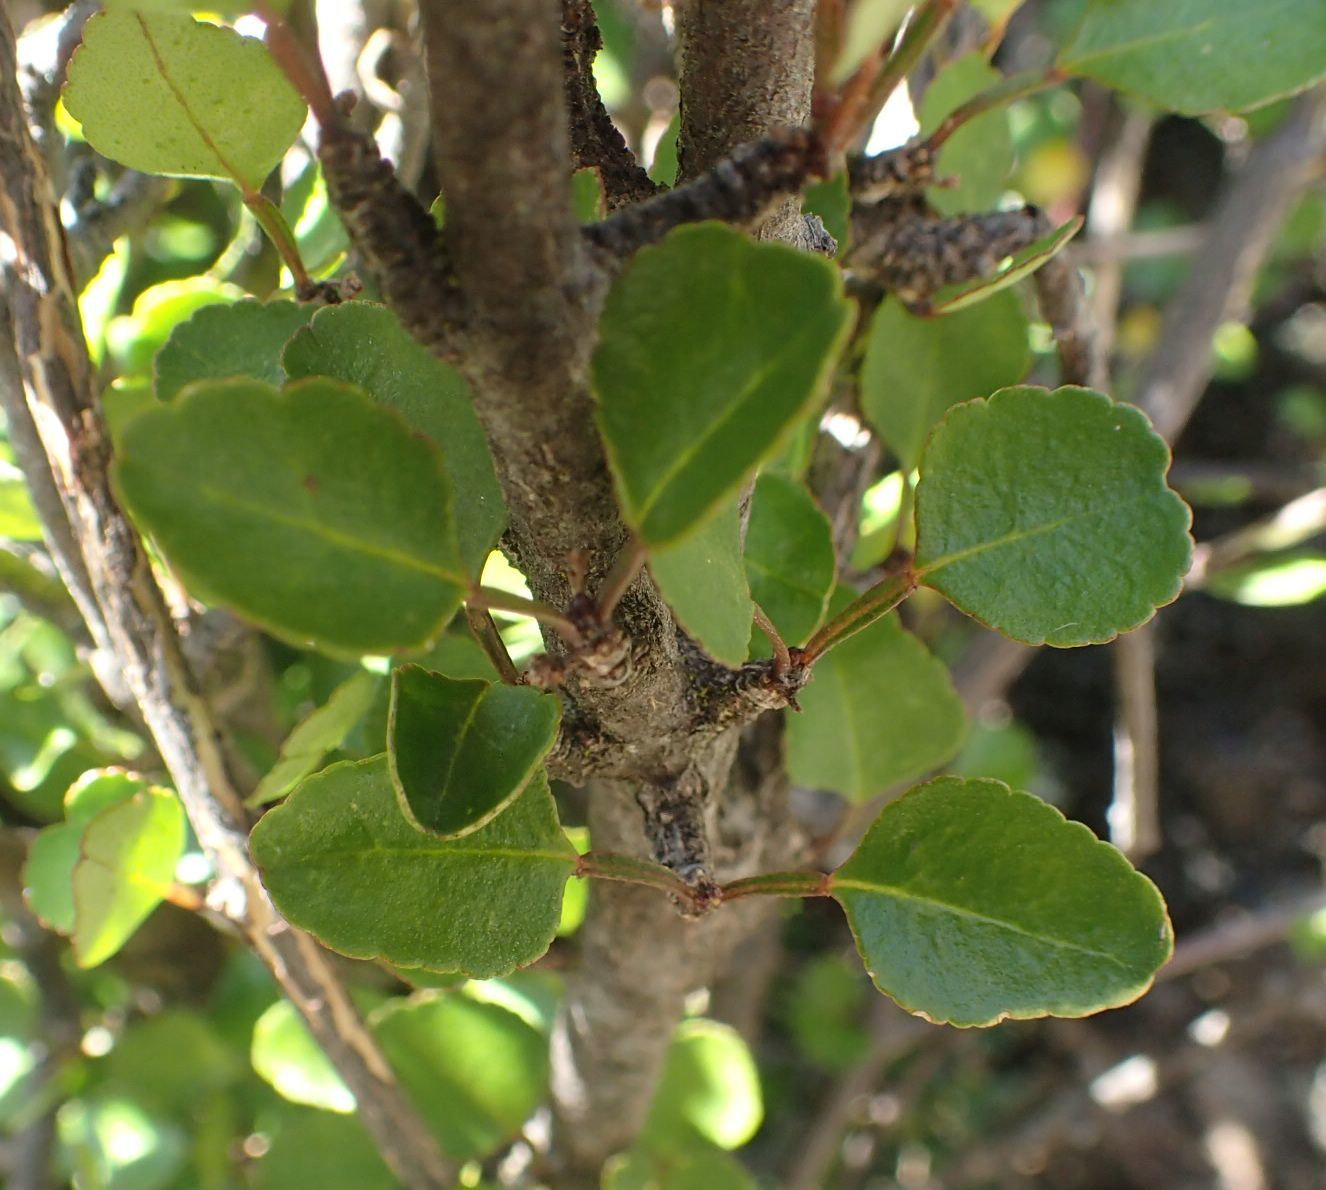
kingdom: Plantae
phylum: Tracheophyta
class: Magnoliopsida
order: Sapindales
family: Rutaceae
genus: Melicope
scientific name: Melicope simplex
